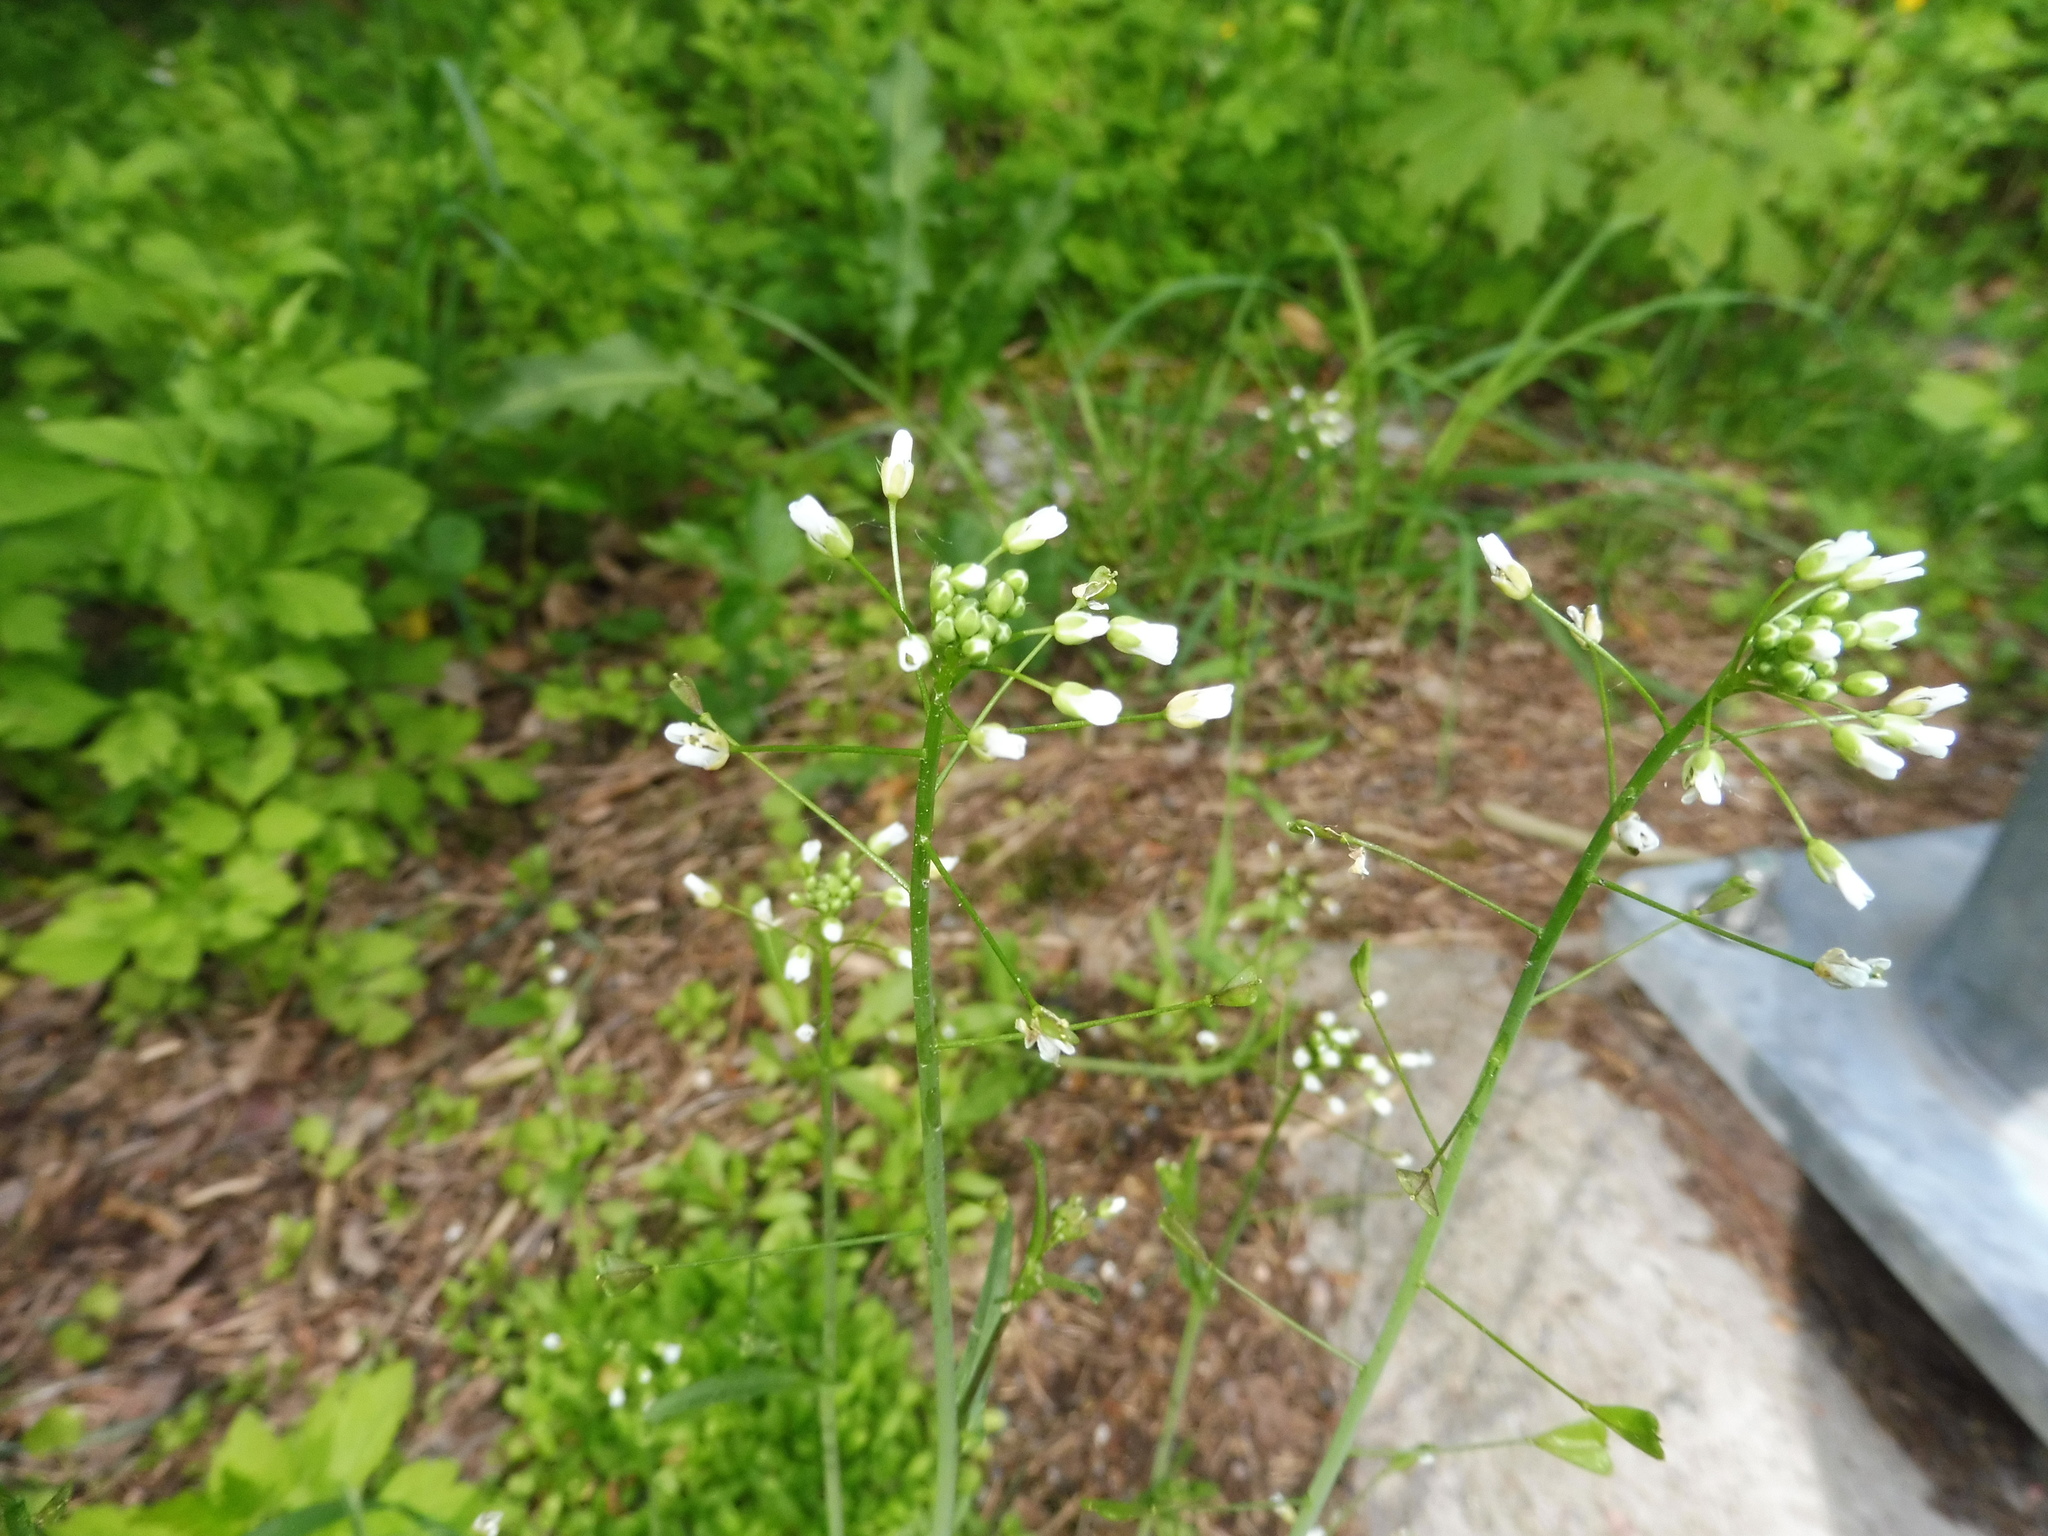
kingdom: Plantae
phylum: Tracheophyta
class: Magnoliopsida
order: Brassicales
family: Brassicaceae
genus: Capsella
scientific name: Capsella bursa-pastoris
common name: Shepherd's purse
